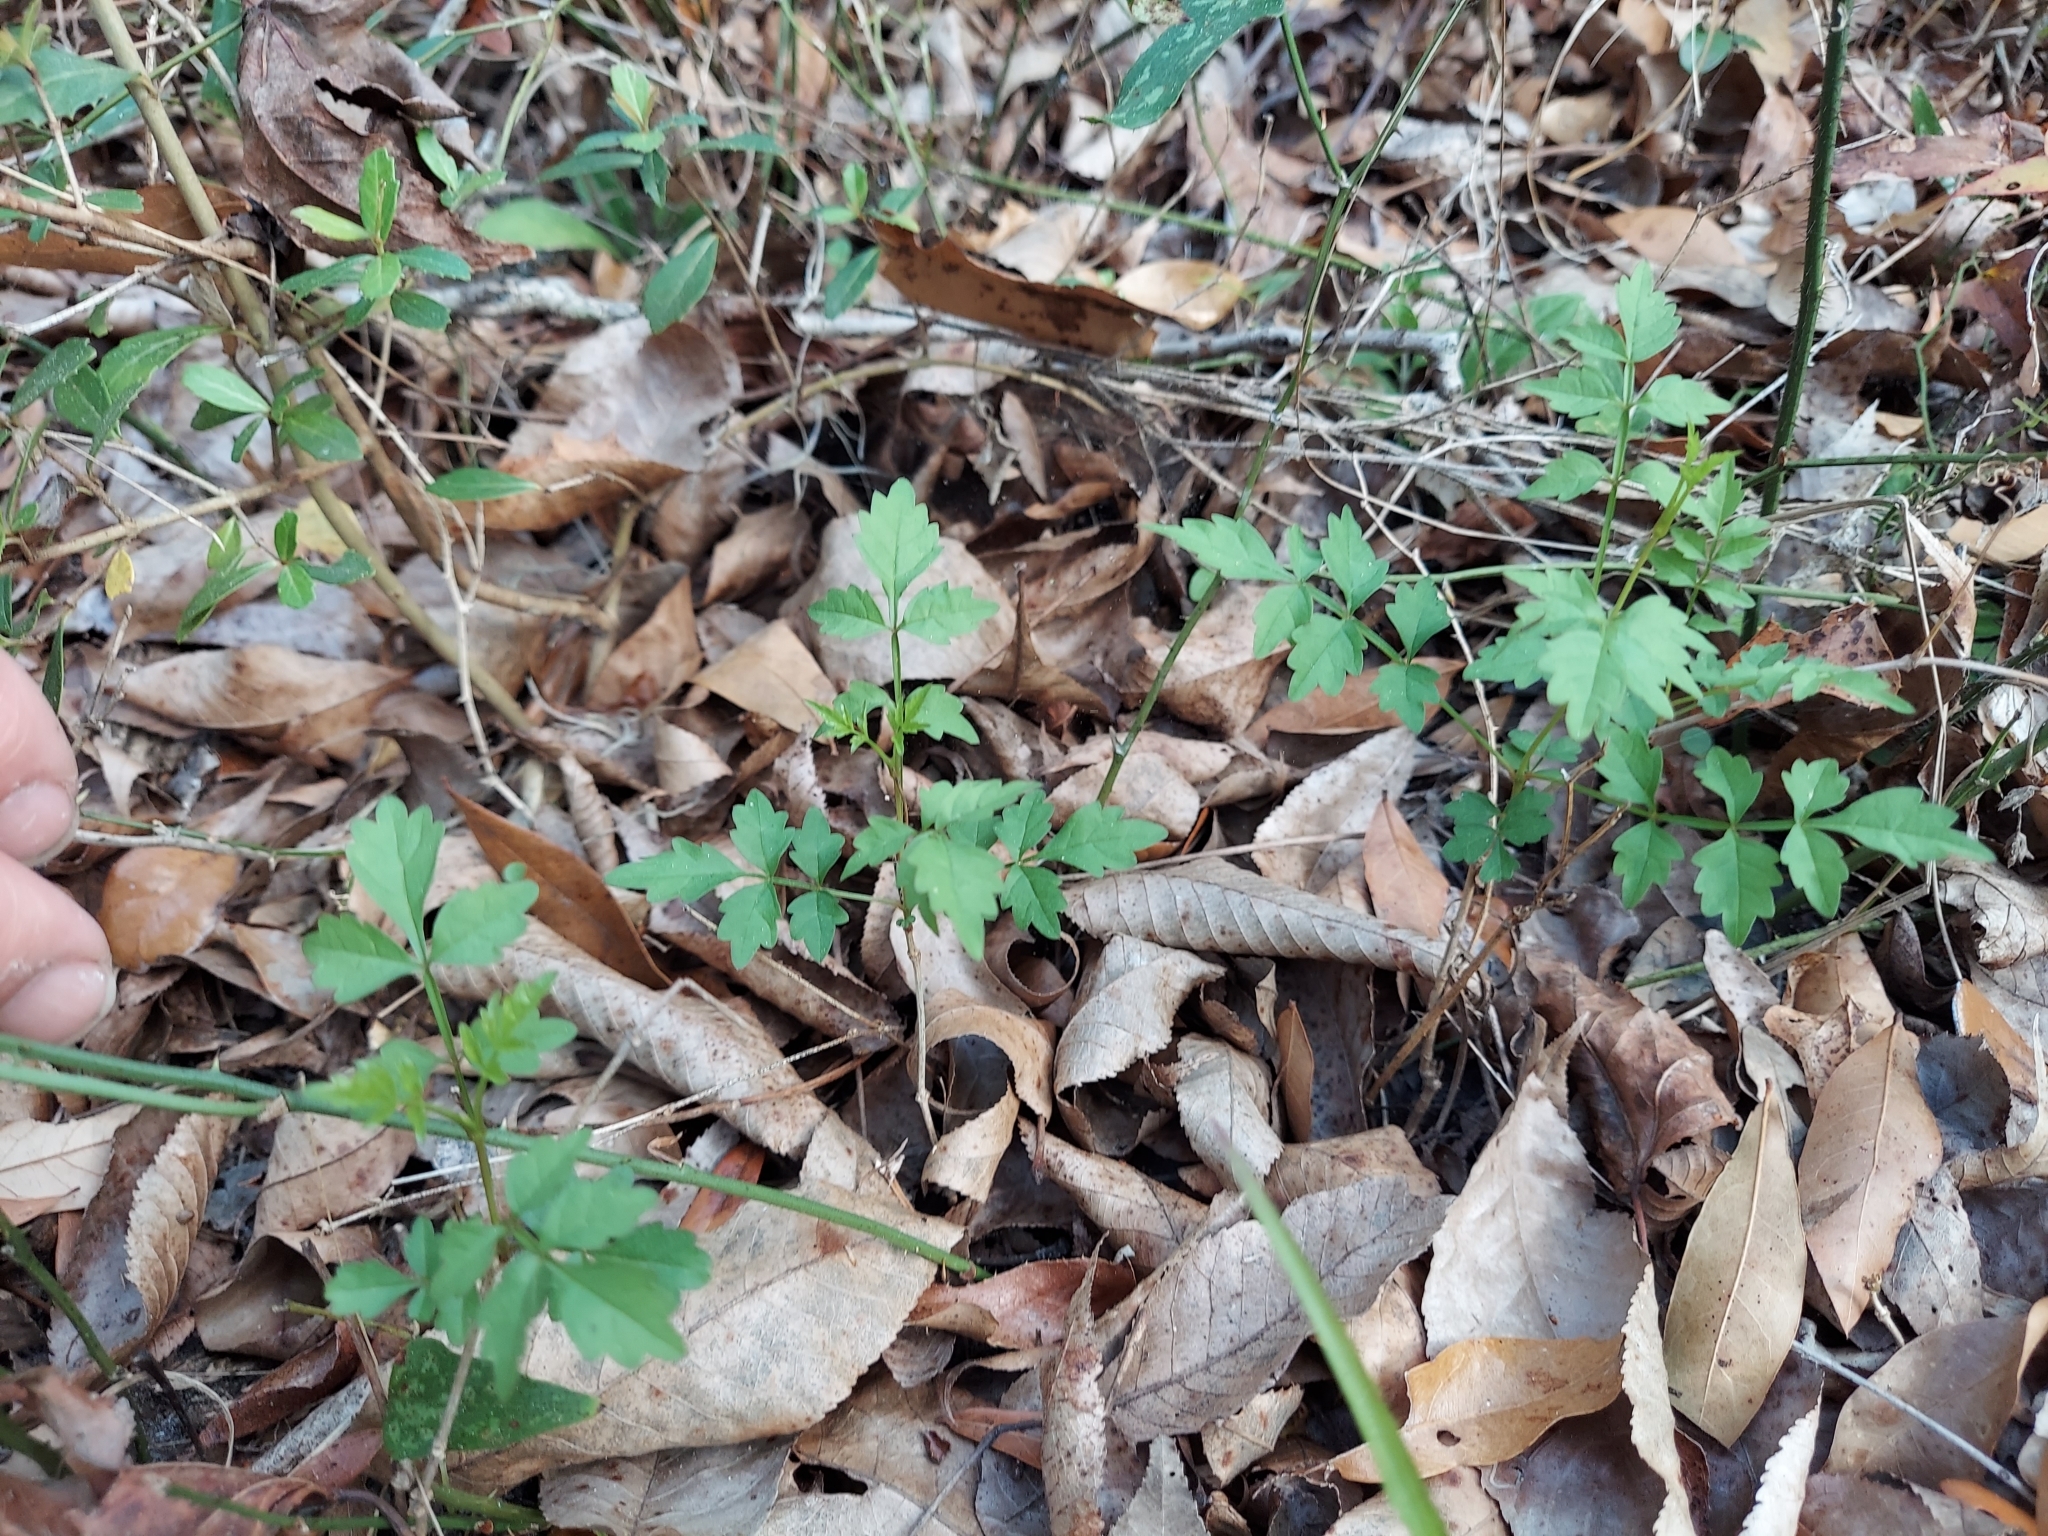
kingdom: Plantae
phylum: Tracheophyta
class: Magnoliopsida
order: Lamiales
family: Bignoniaceae
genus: Campsis
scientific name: Campsis radicans
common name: Trumpet-creeper
